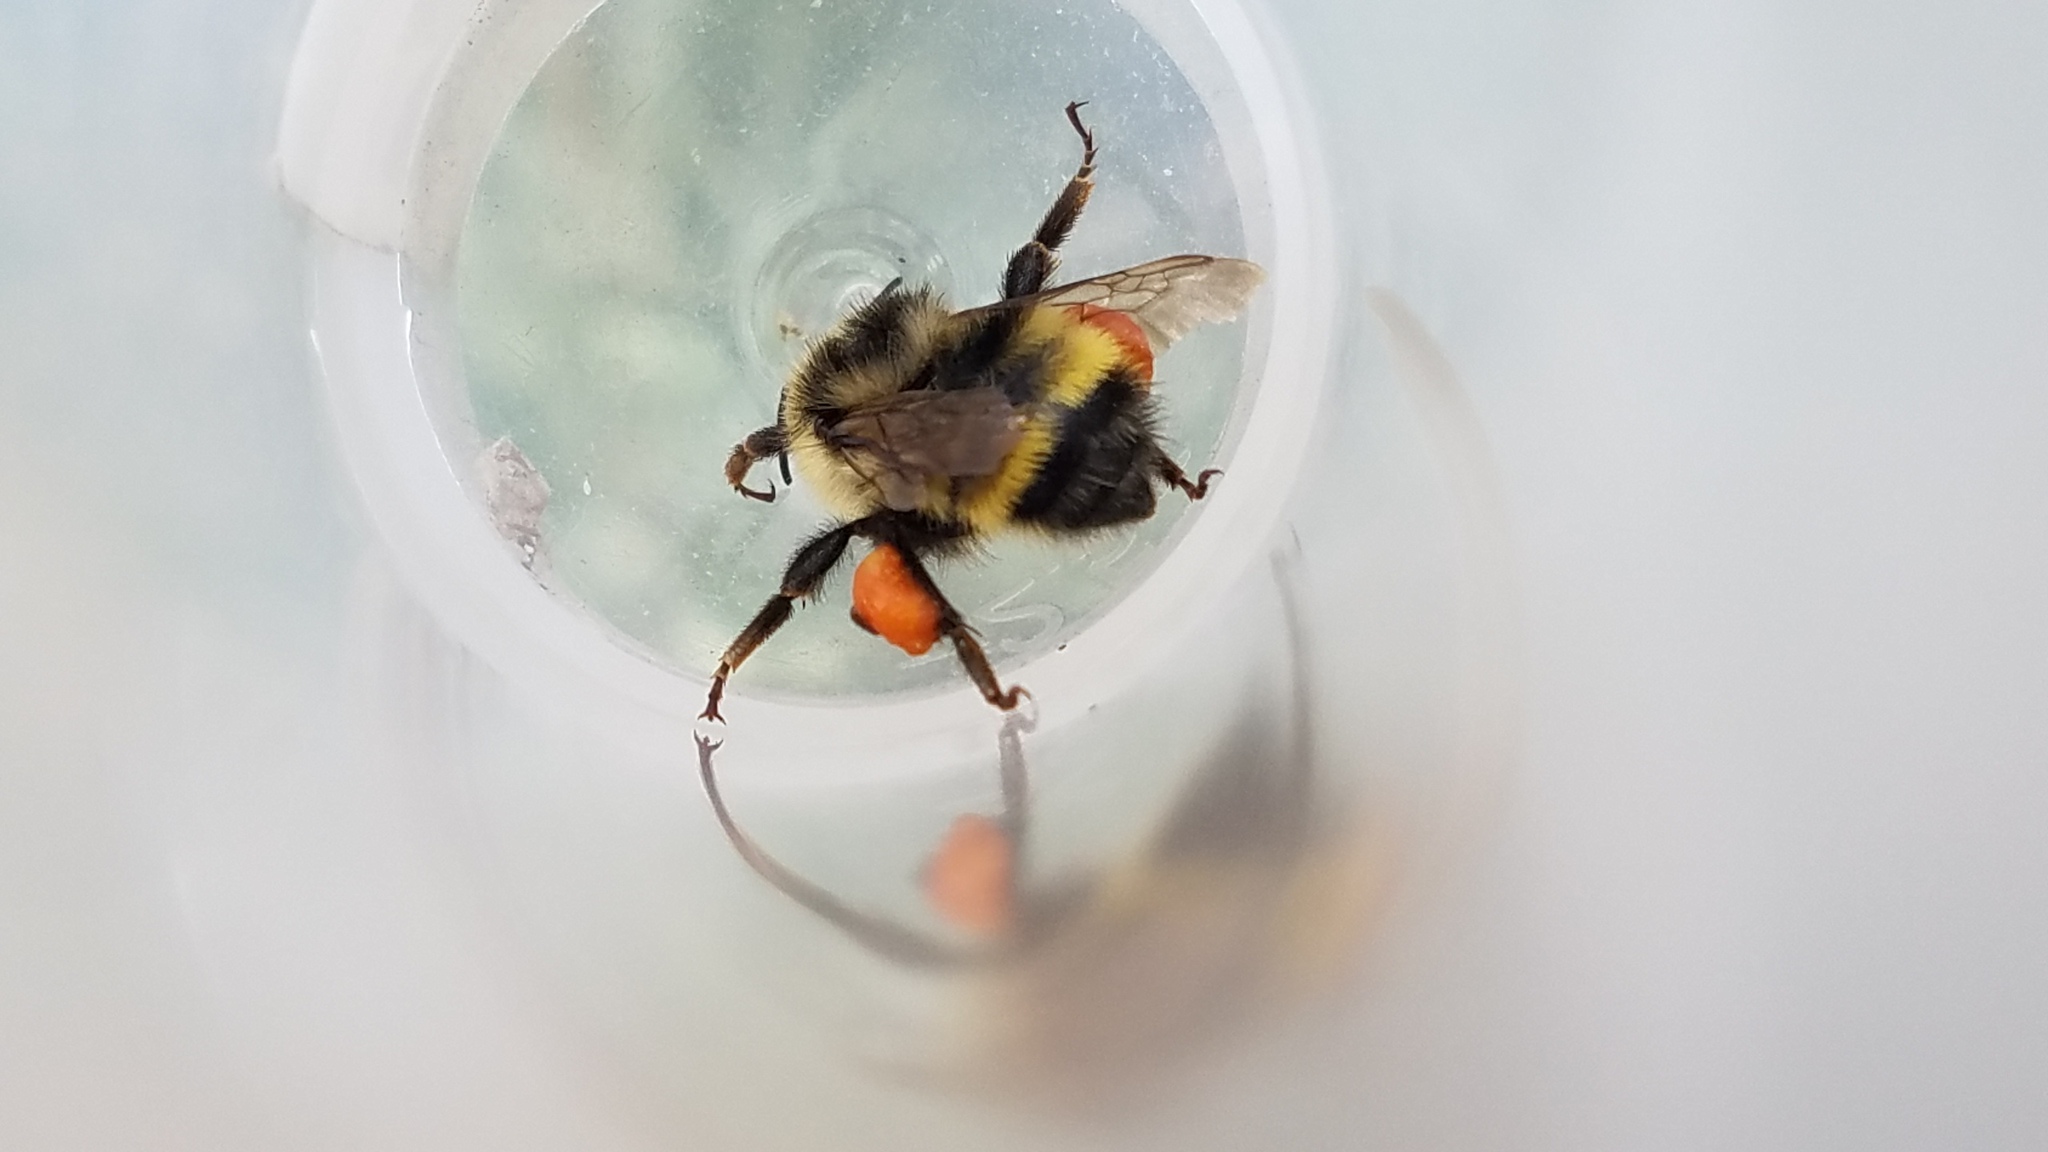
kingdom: Animalia
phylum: Arthropoda
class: Insecta
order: Hymenoptera
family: Apidae
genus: Bombus
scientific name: Bombus vandykei
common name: Van dyke bumble bee
